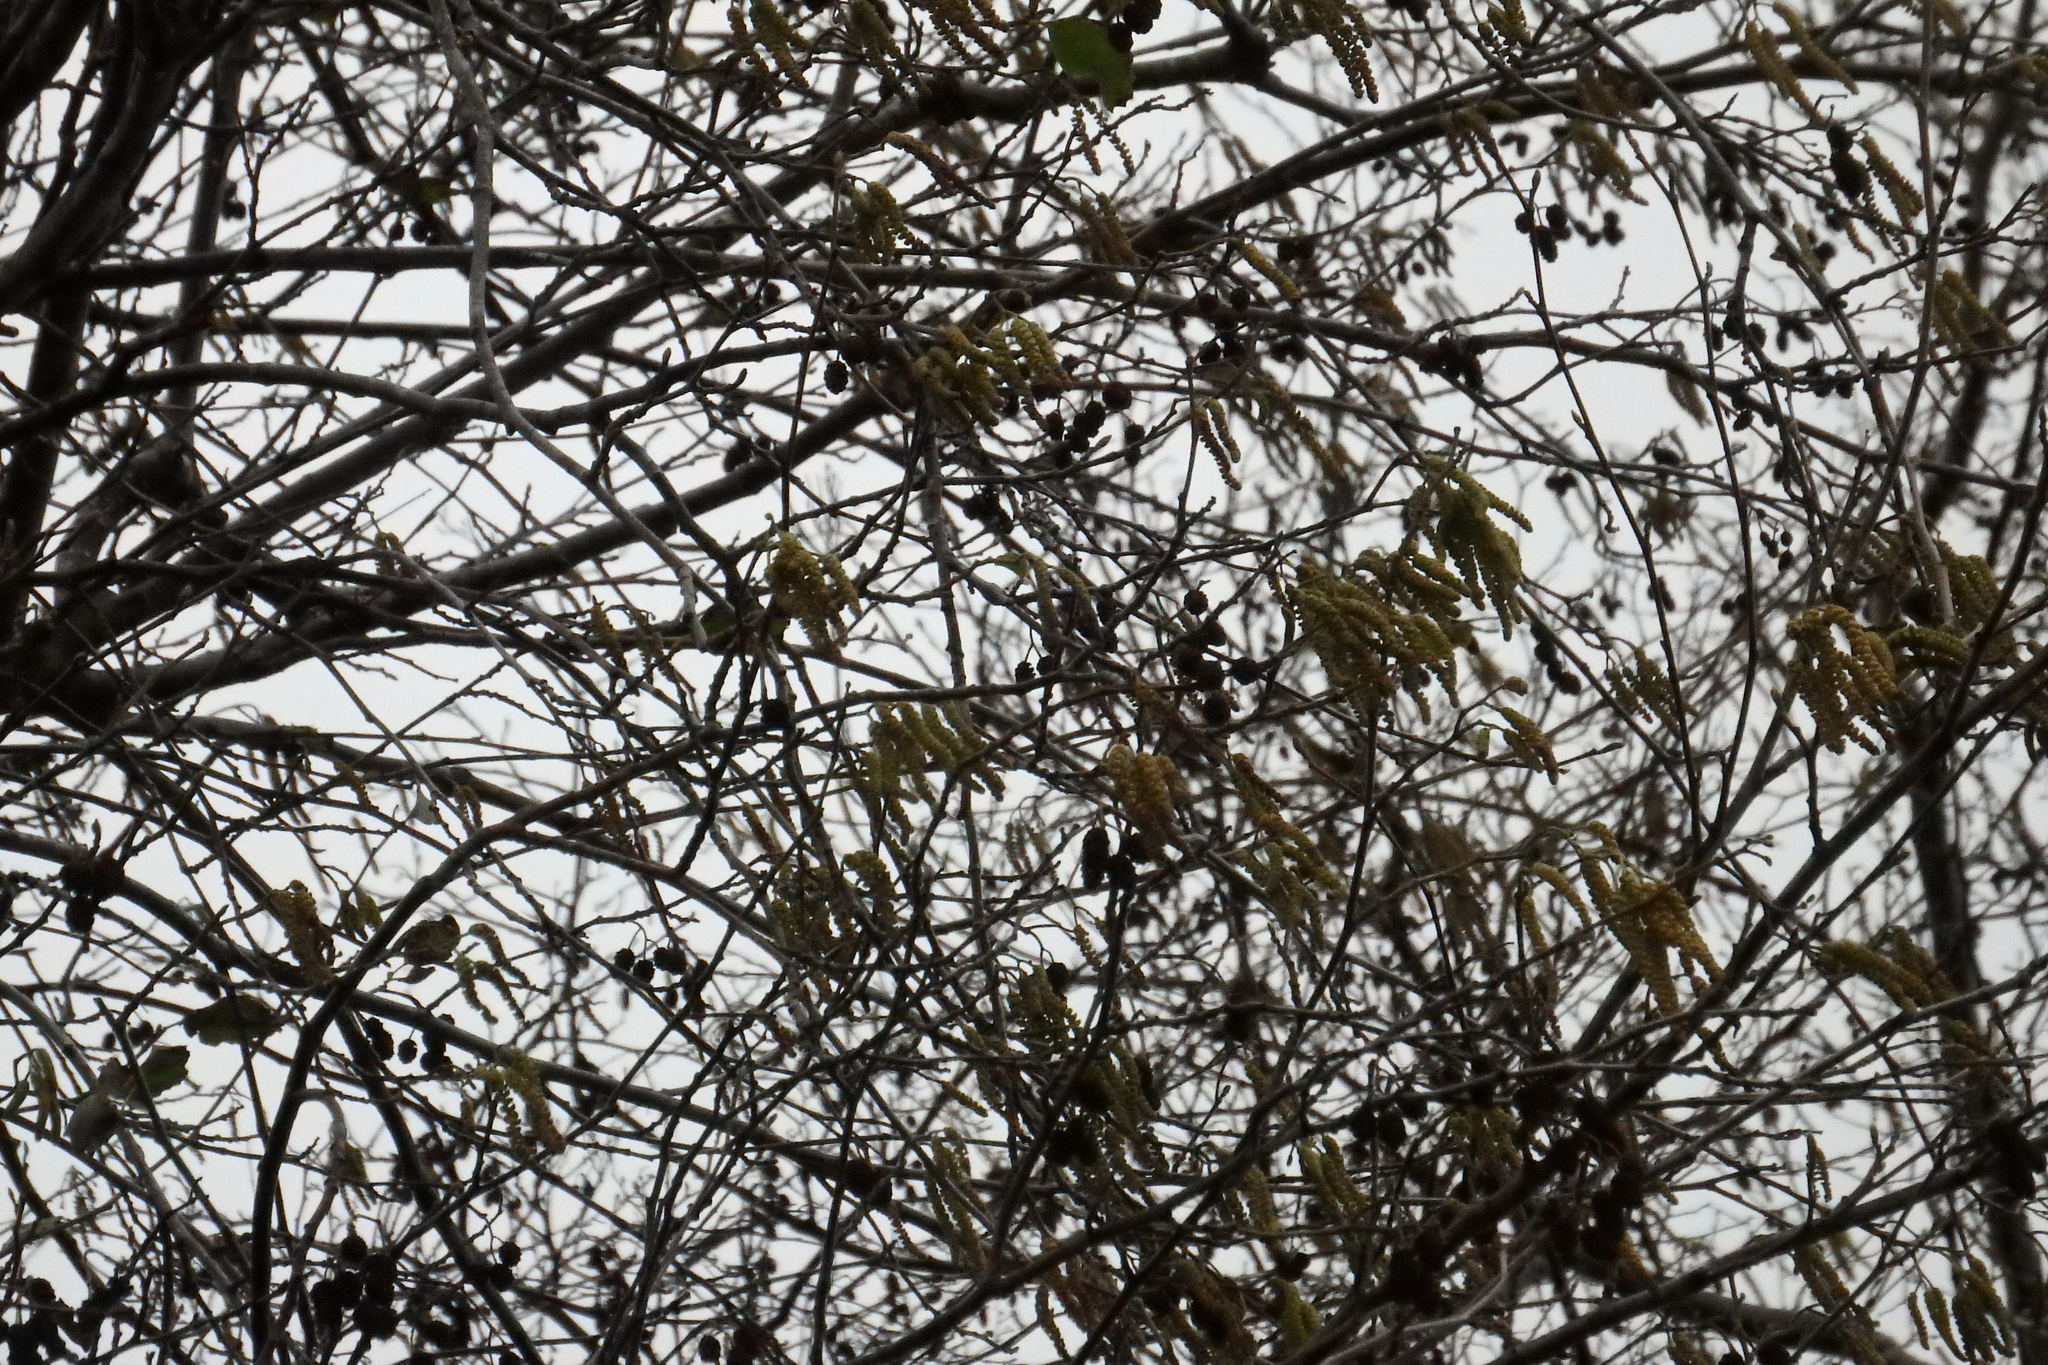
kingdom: Plantae
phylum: Tracheophyta
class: Magnoliopsida
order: Fagales
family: Betulaceae
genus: Alnus
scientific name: Alnus lusitanica
